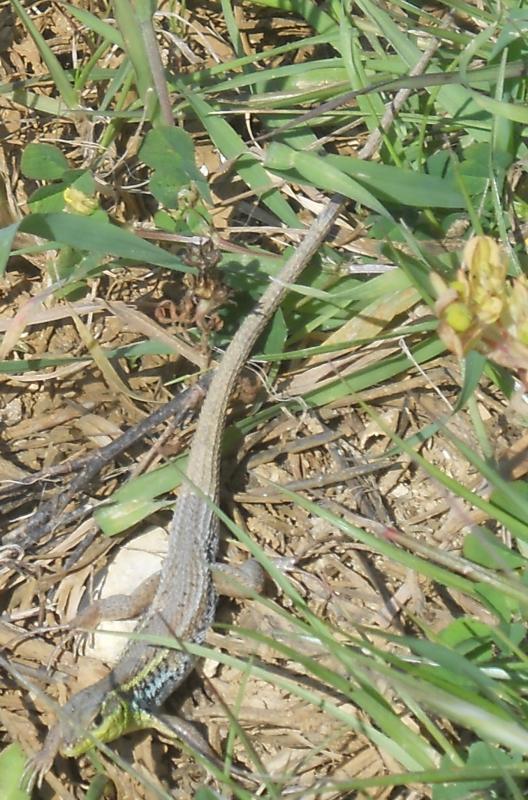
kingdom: Animalia
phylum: Chordata
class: Squamata
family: Lacertidae
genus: Ophisops
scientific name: Ophisops elegans
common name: Snake-eyed lizard
